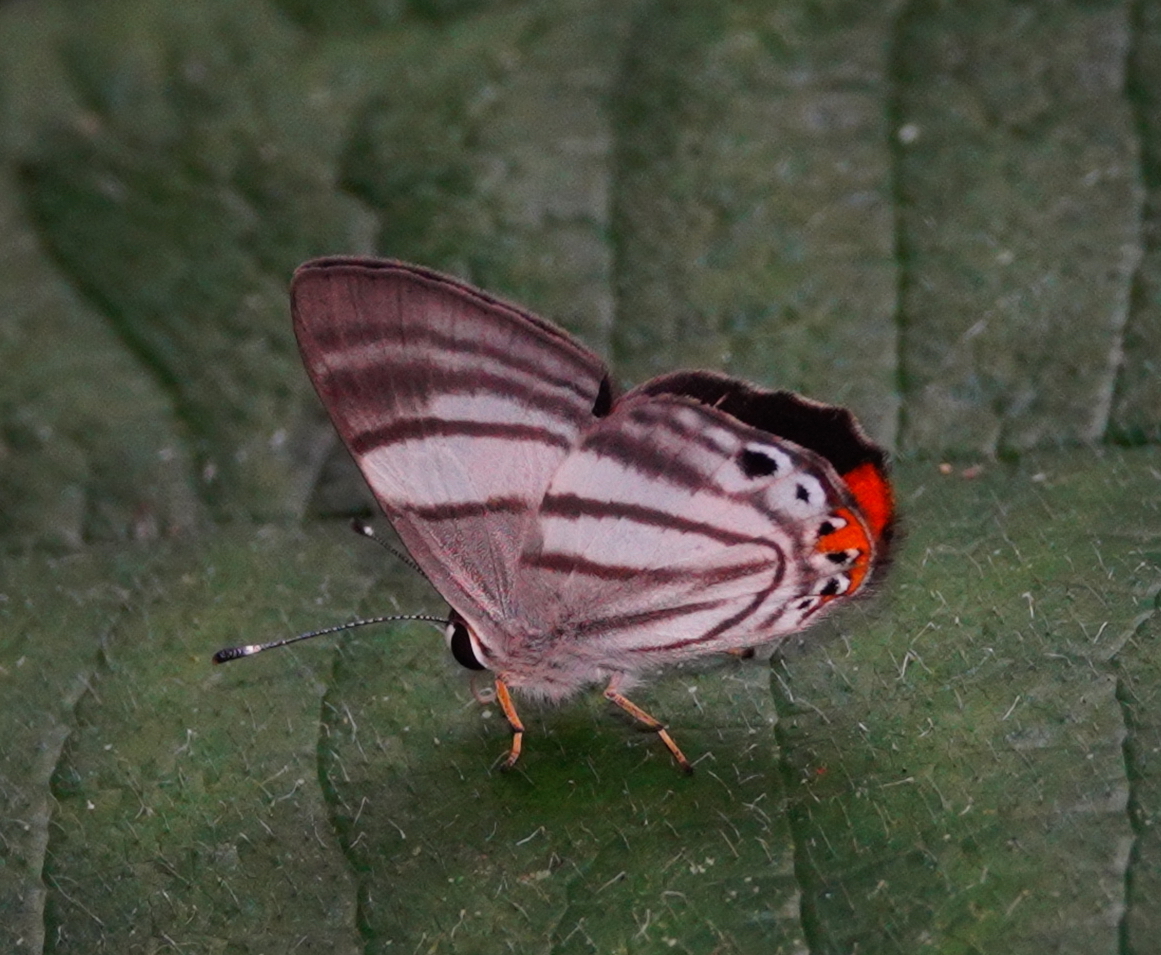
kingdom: Animalia
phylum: Arthropoda
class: Insecta
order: Lepidoptera
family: Lycaenidae
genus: Euselasia
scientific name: Euselasia fervida
